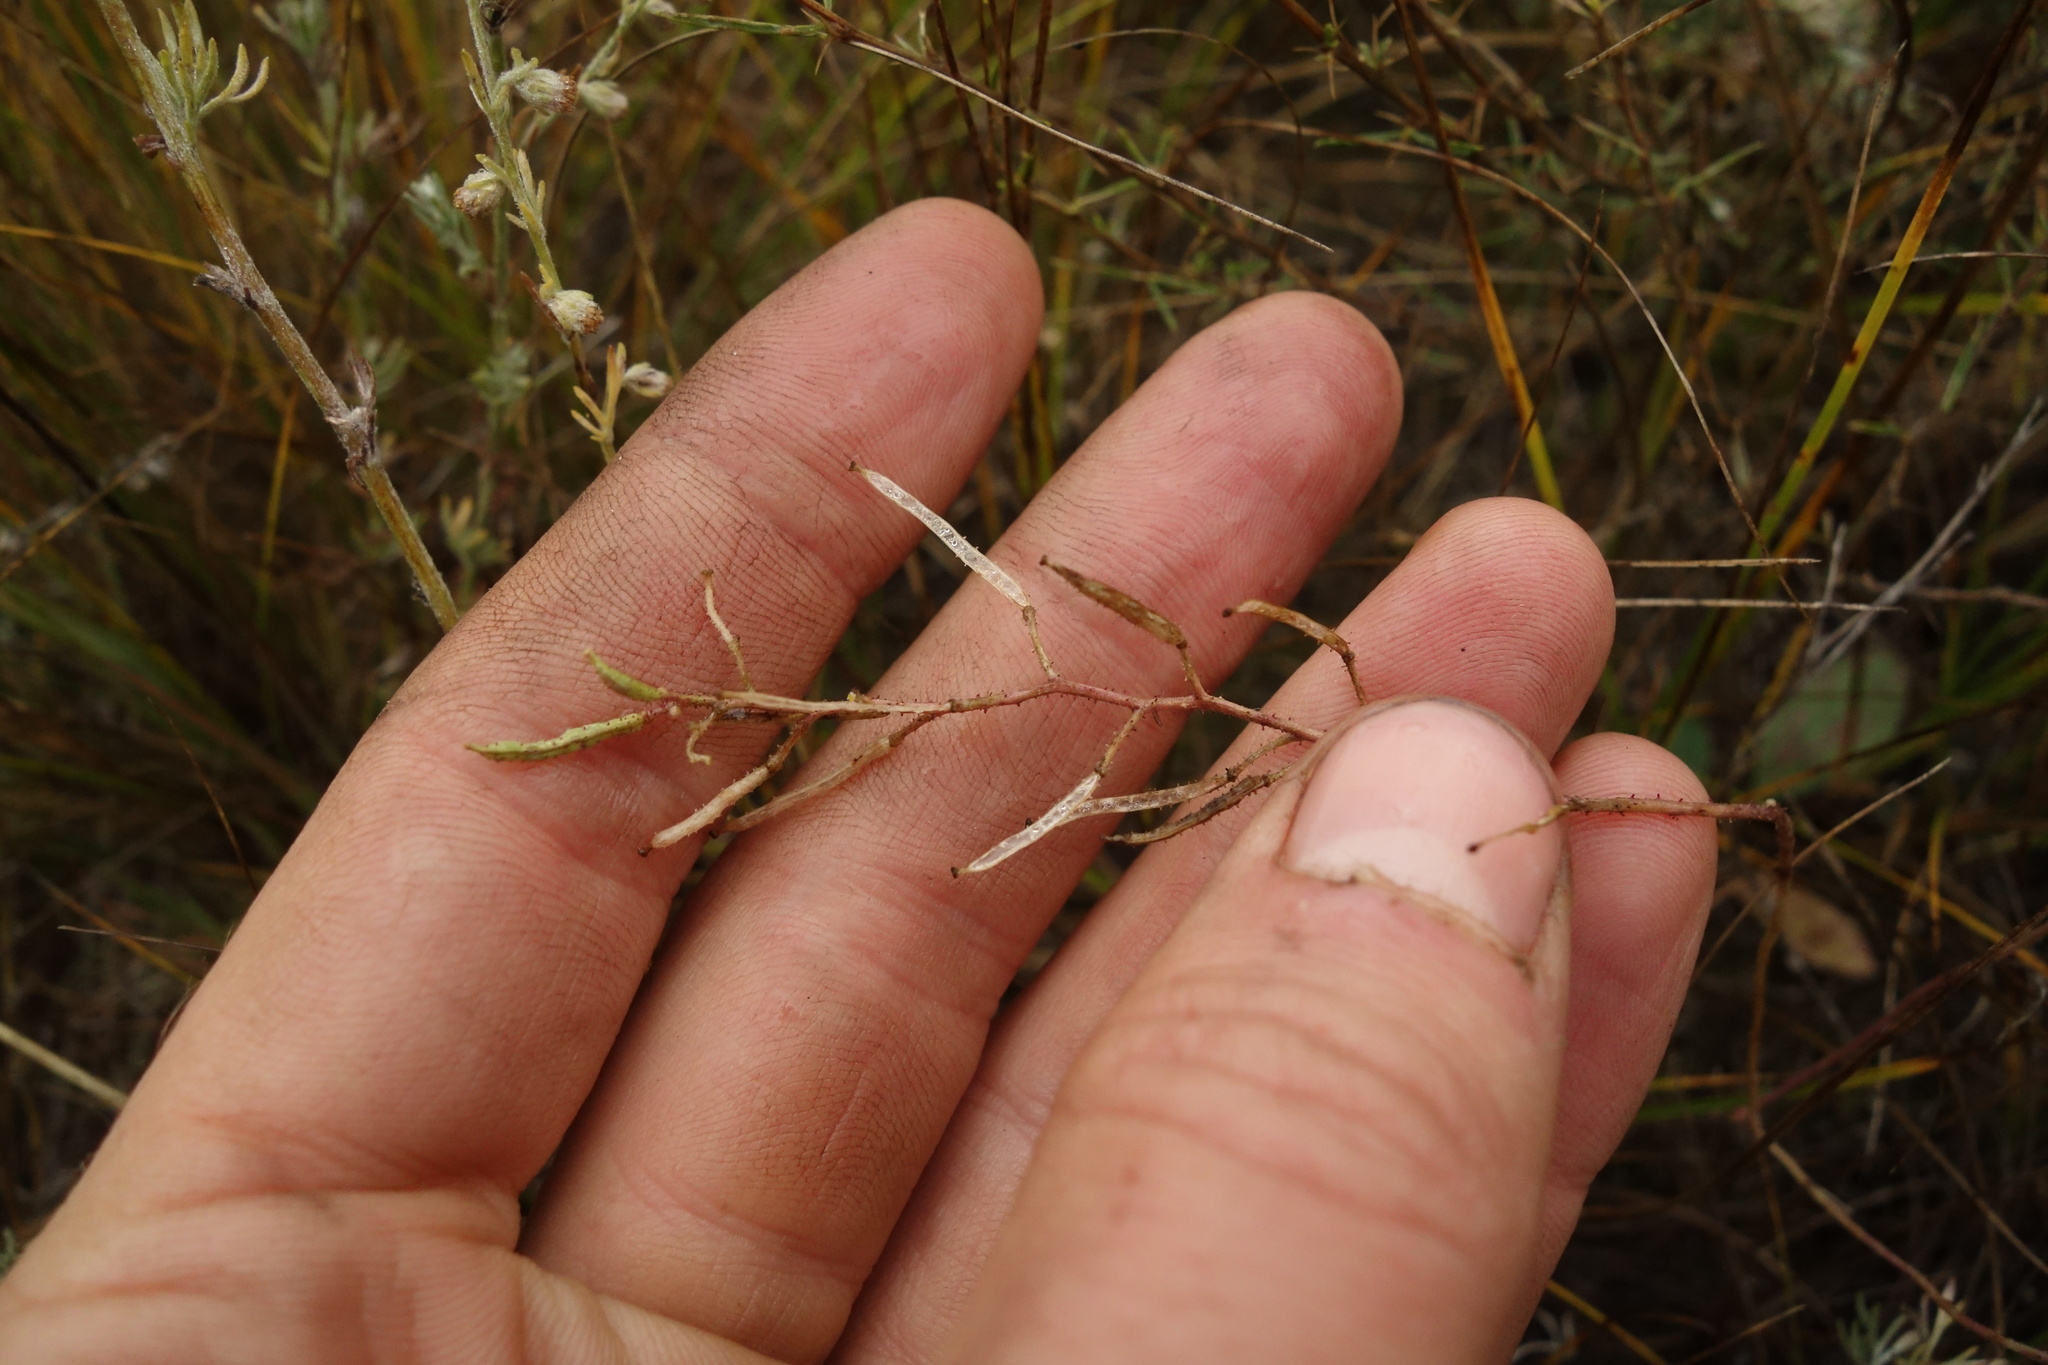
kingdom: Plantae
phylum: Tracheophyta
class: Magnoliopsida
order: Brassicales
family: Brassicaceae
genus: Dontostemon
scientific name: Dontostemon integrifolius
